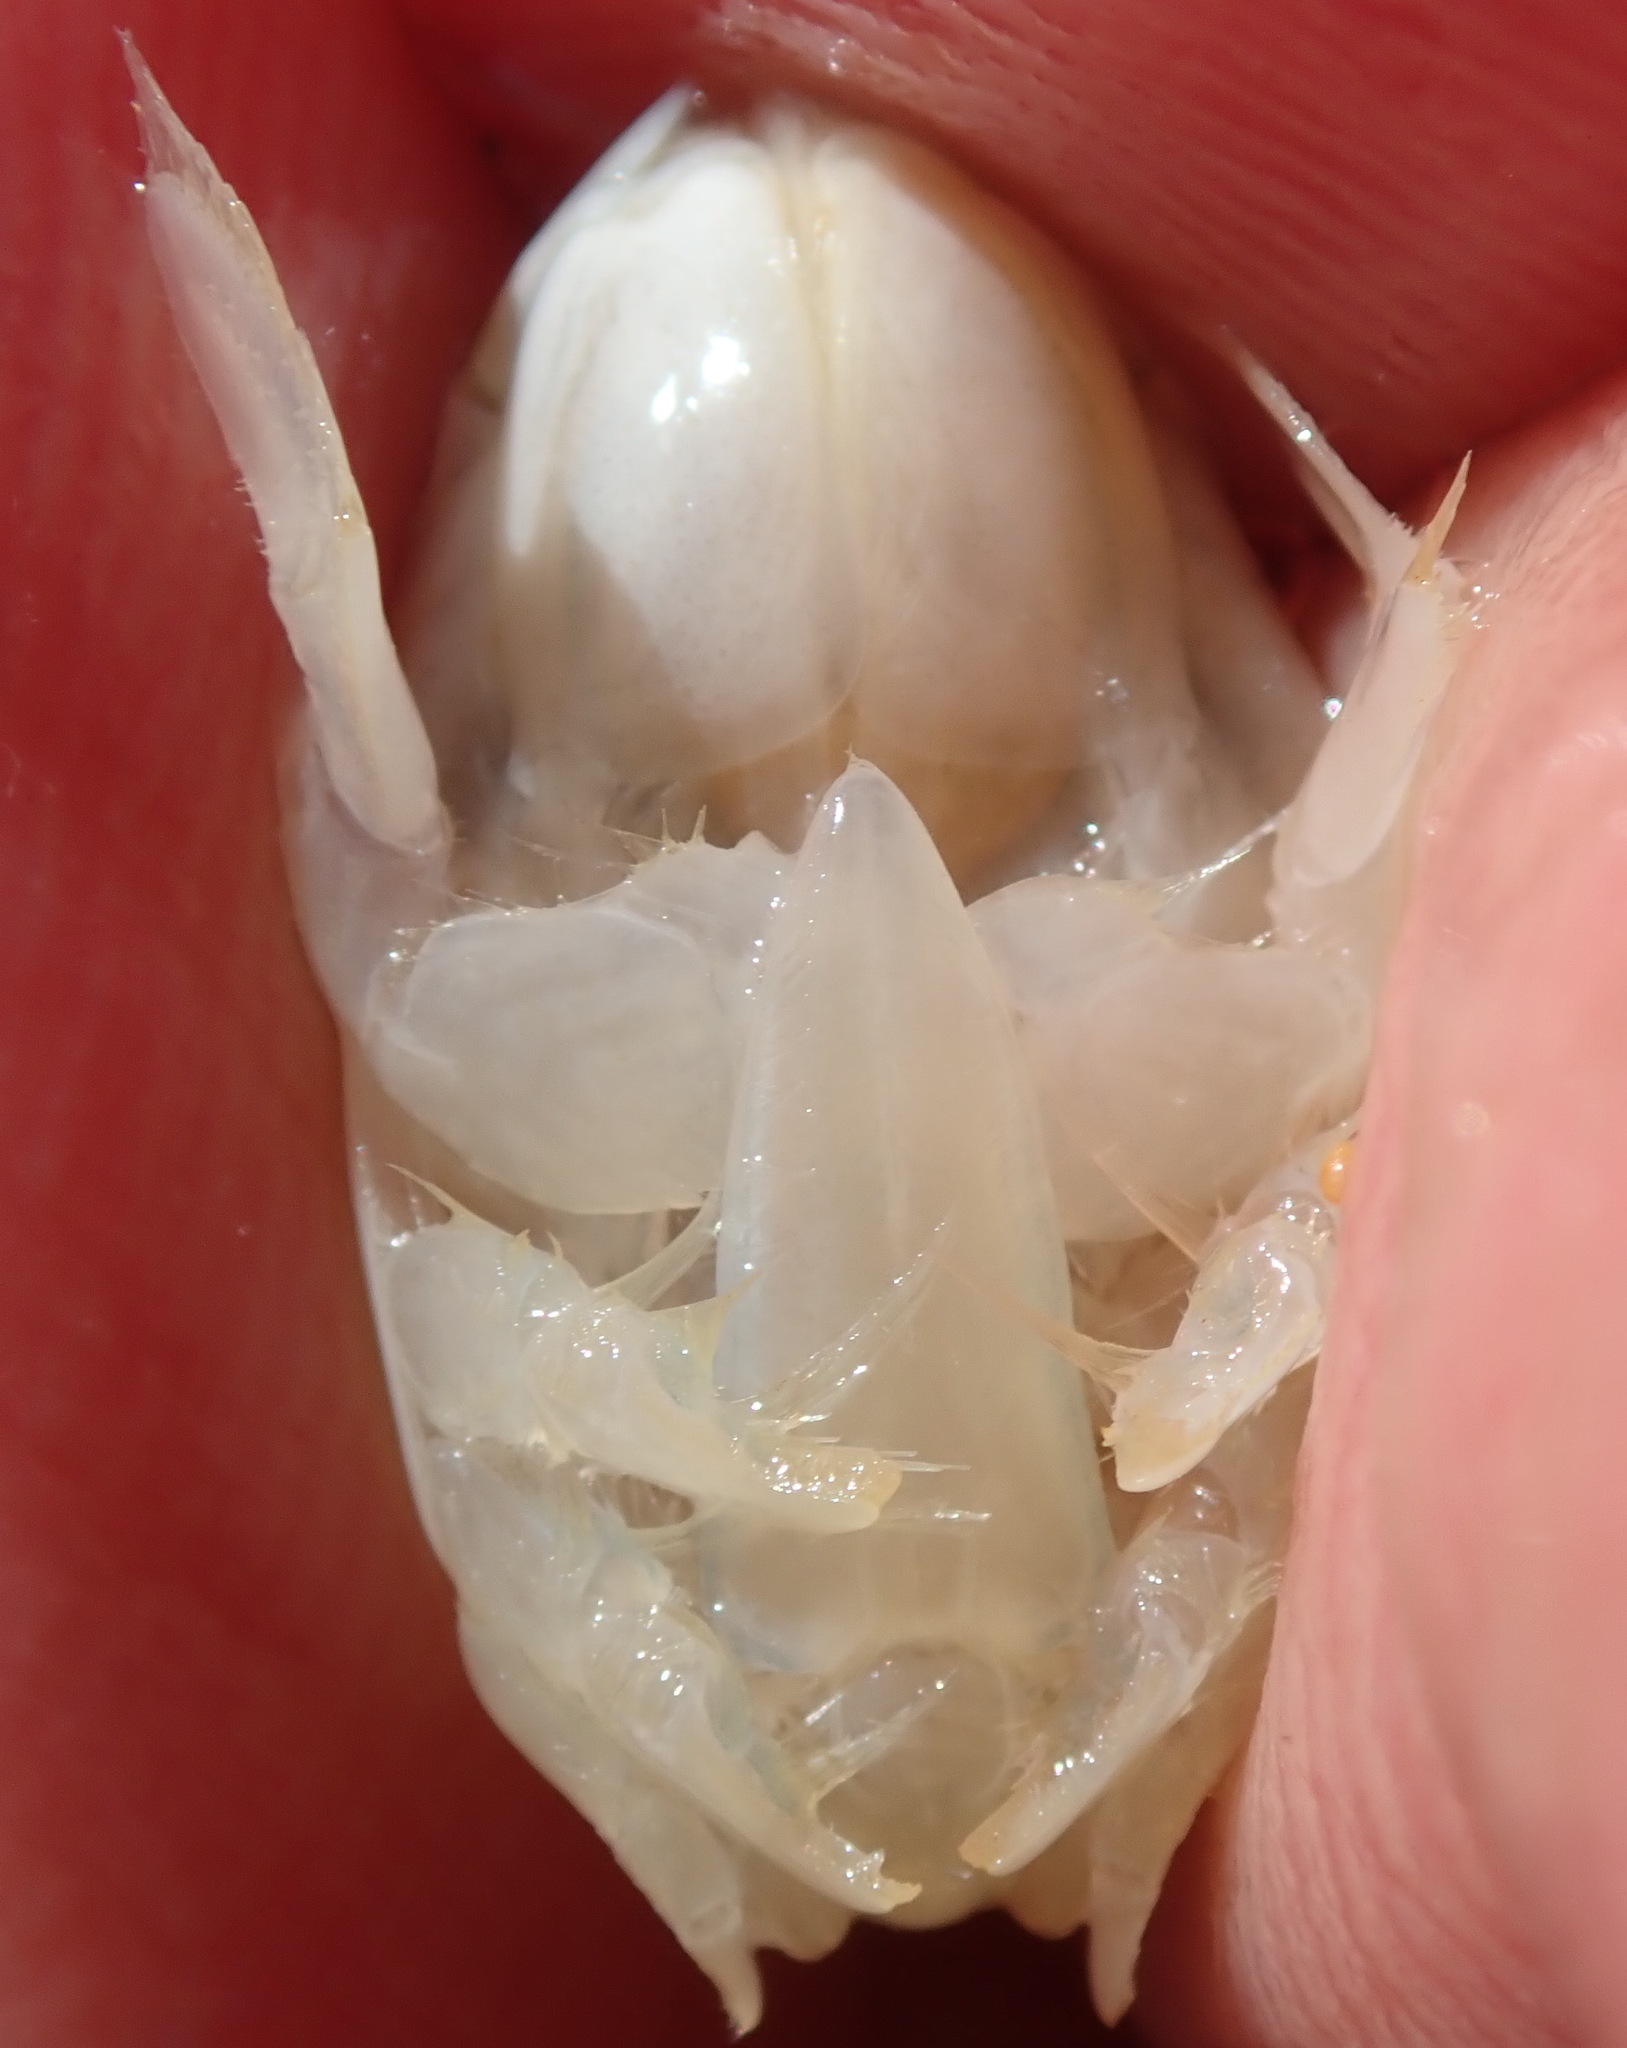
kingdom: Animalia
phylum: Arthropoda
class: Malacostraca
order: Decapoda
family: Hippidae
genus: Emerita
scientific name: Emerita analoga
